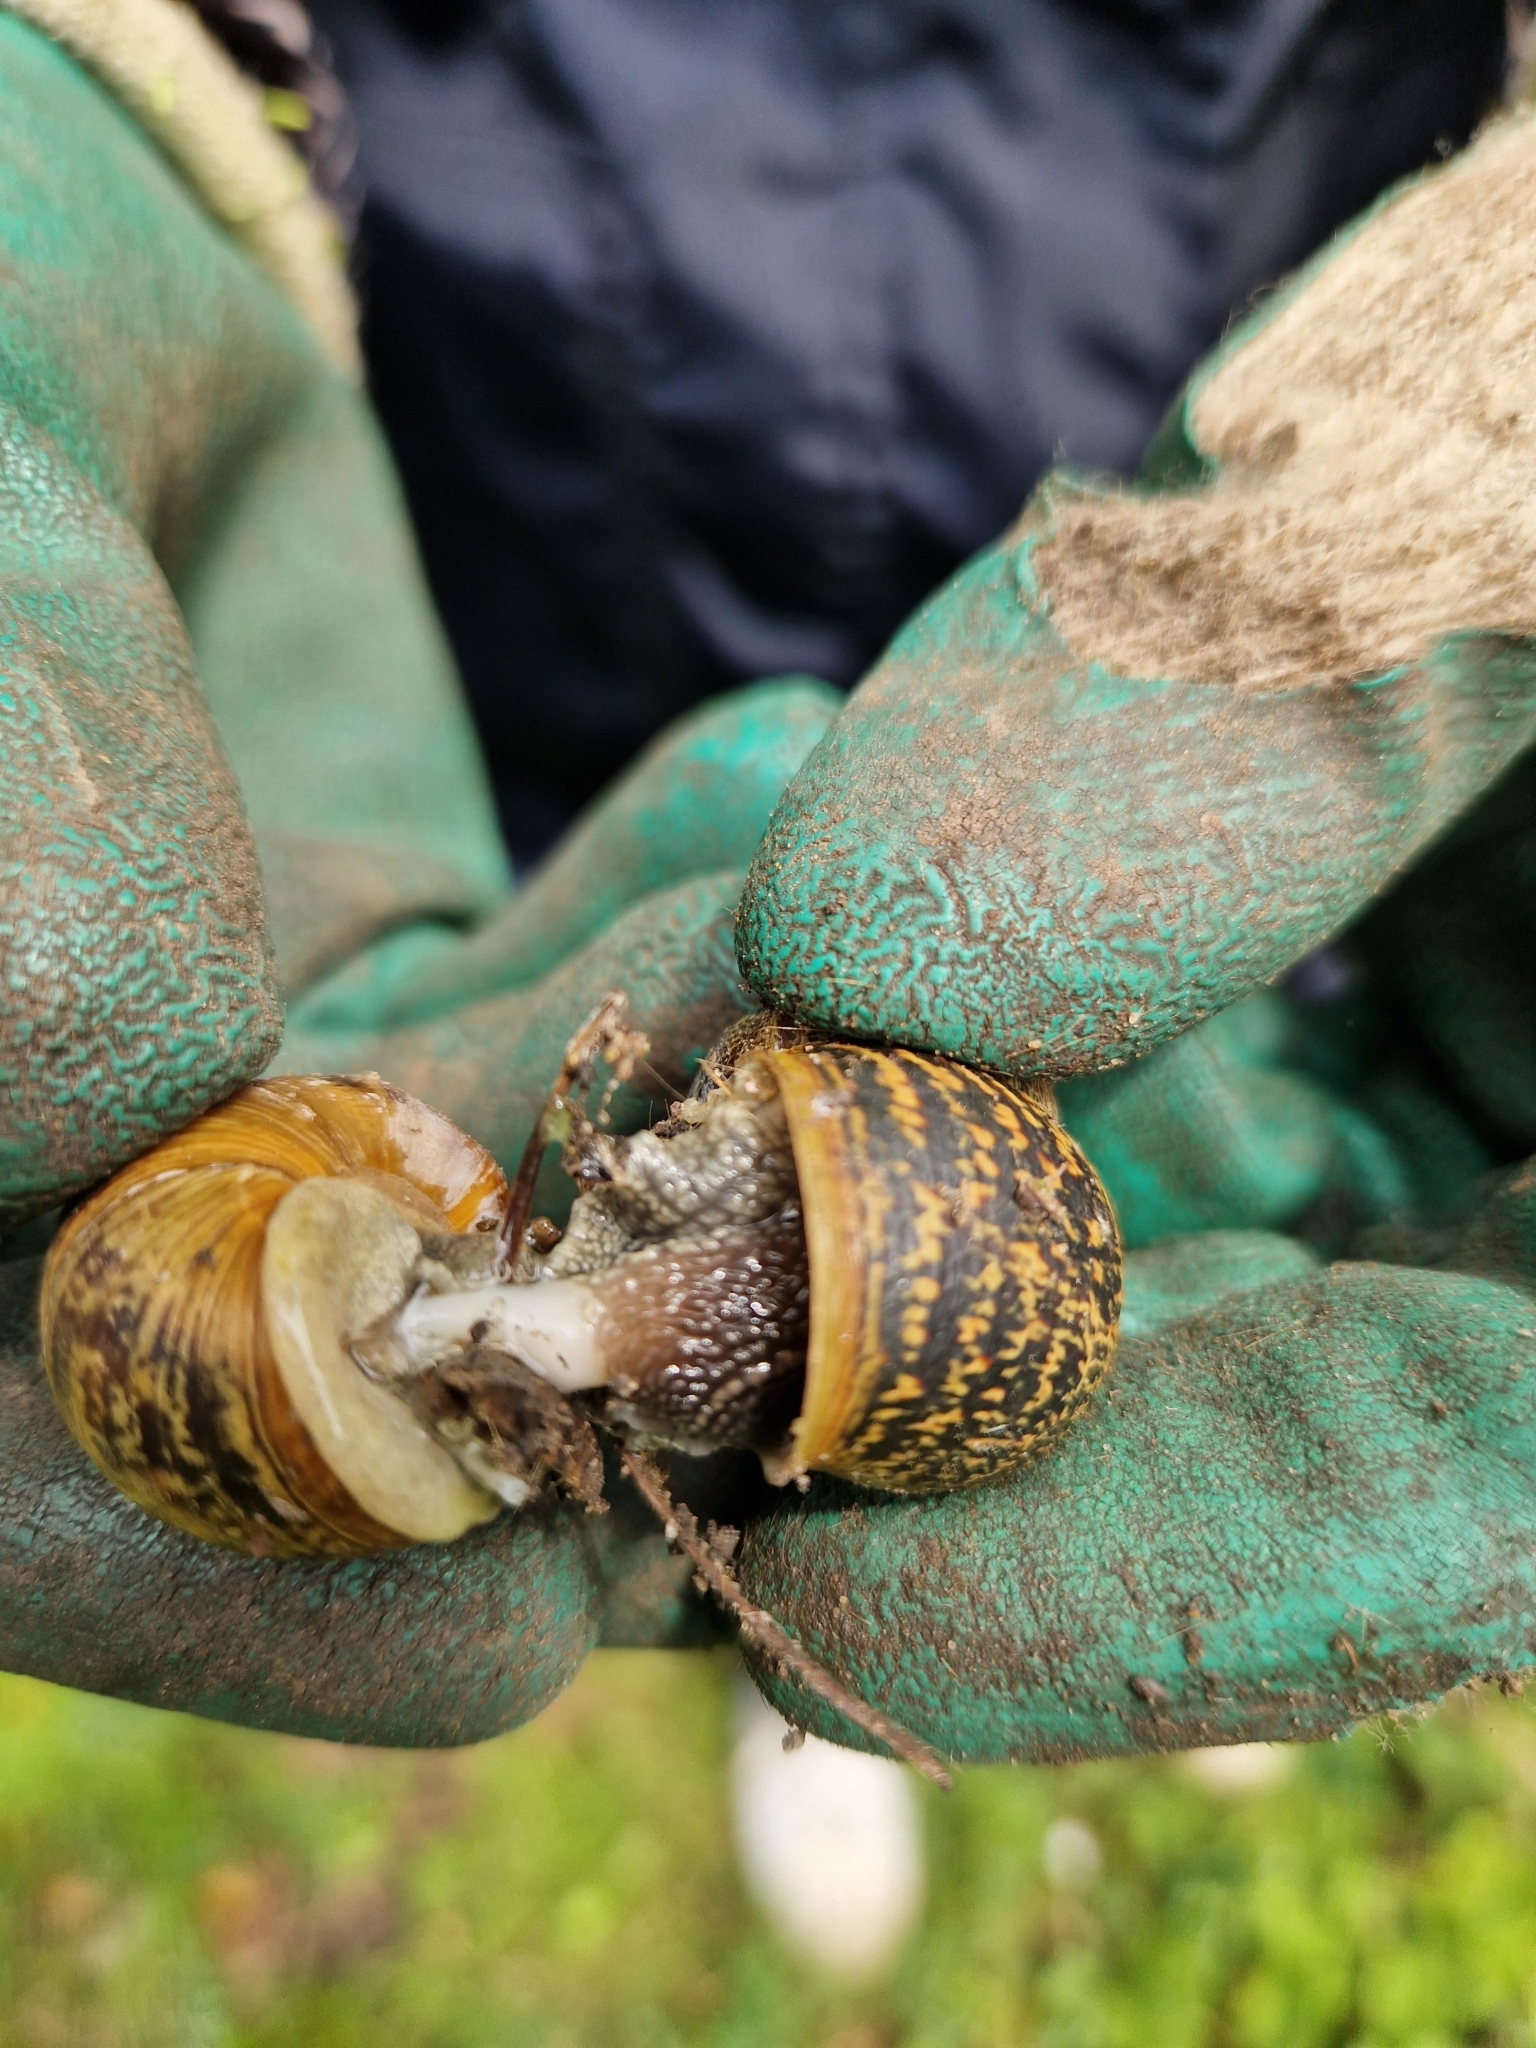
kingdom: Animalia
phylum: Mollusca
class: Gastropoda
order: Stylommatophora
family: Helicidae
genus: Cornu
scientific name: Cornu aspersum
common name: Brown garden snail
